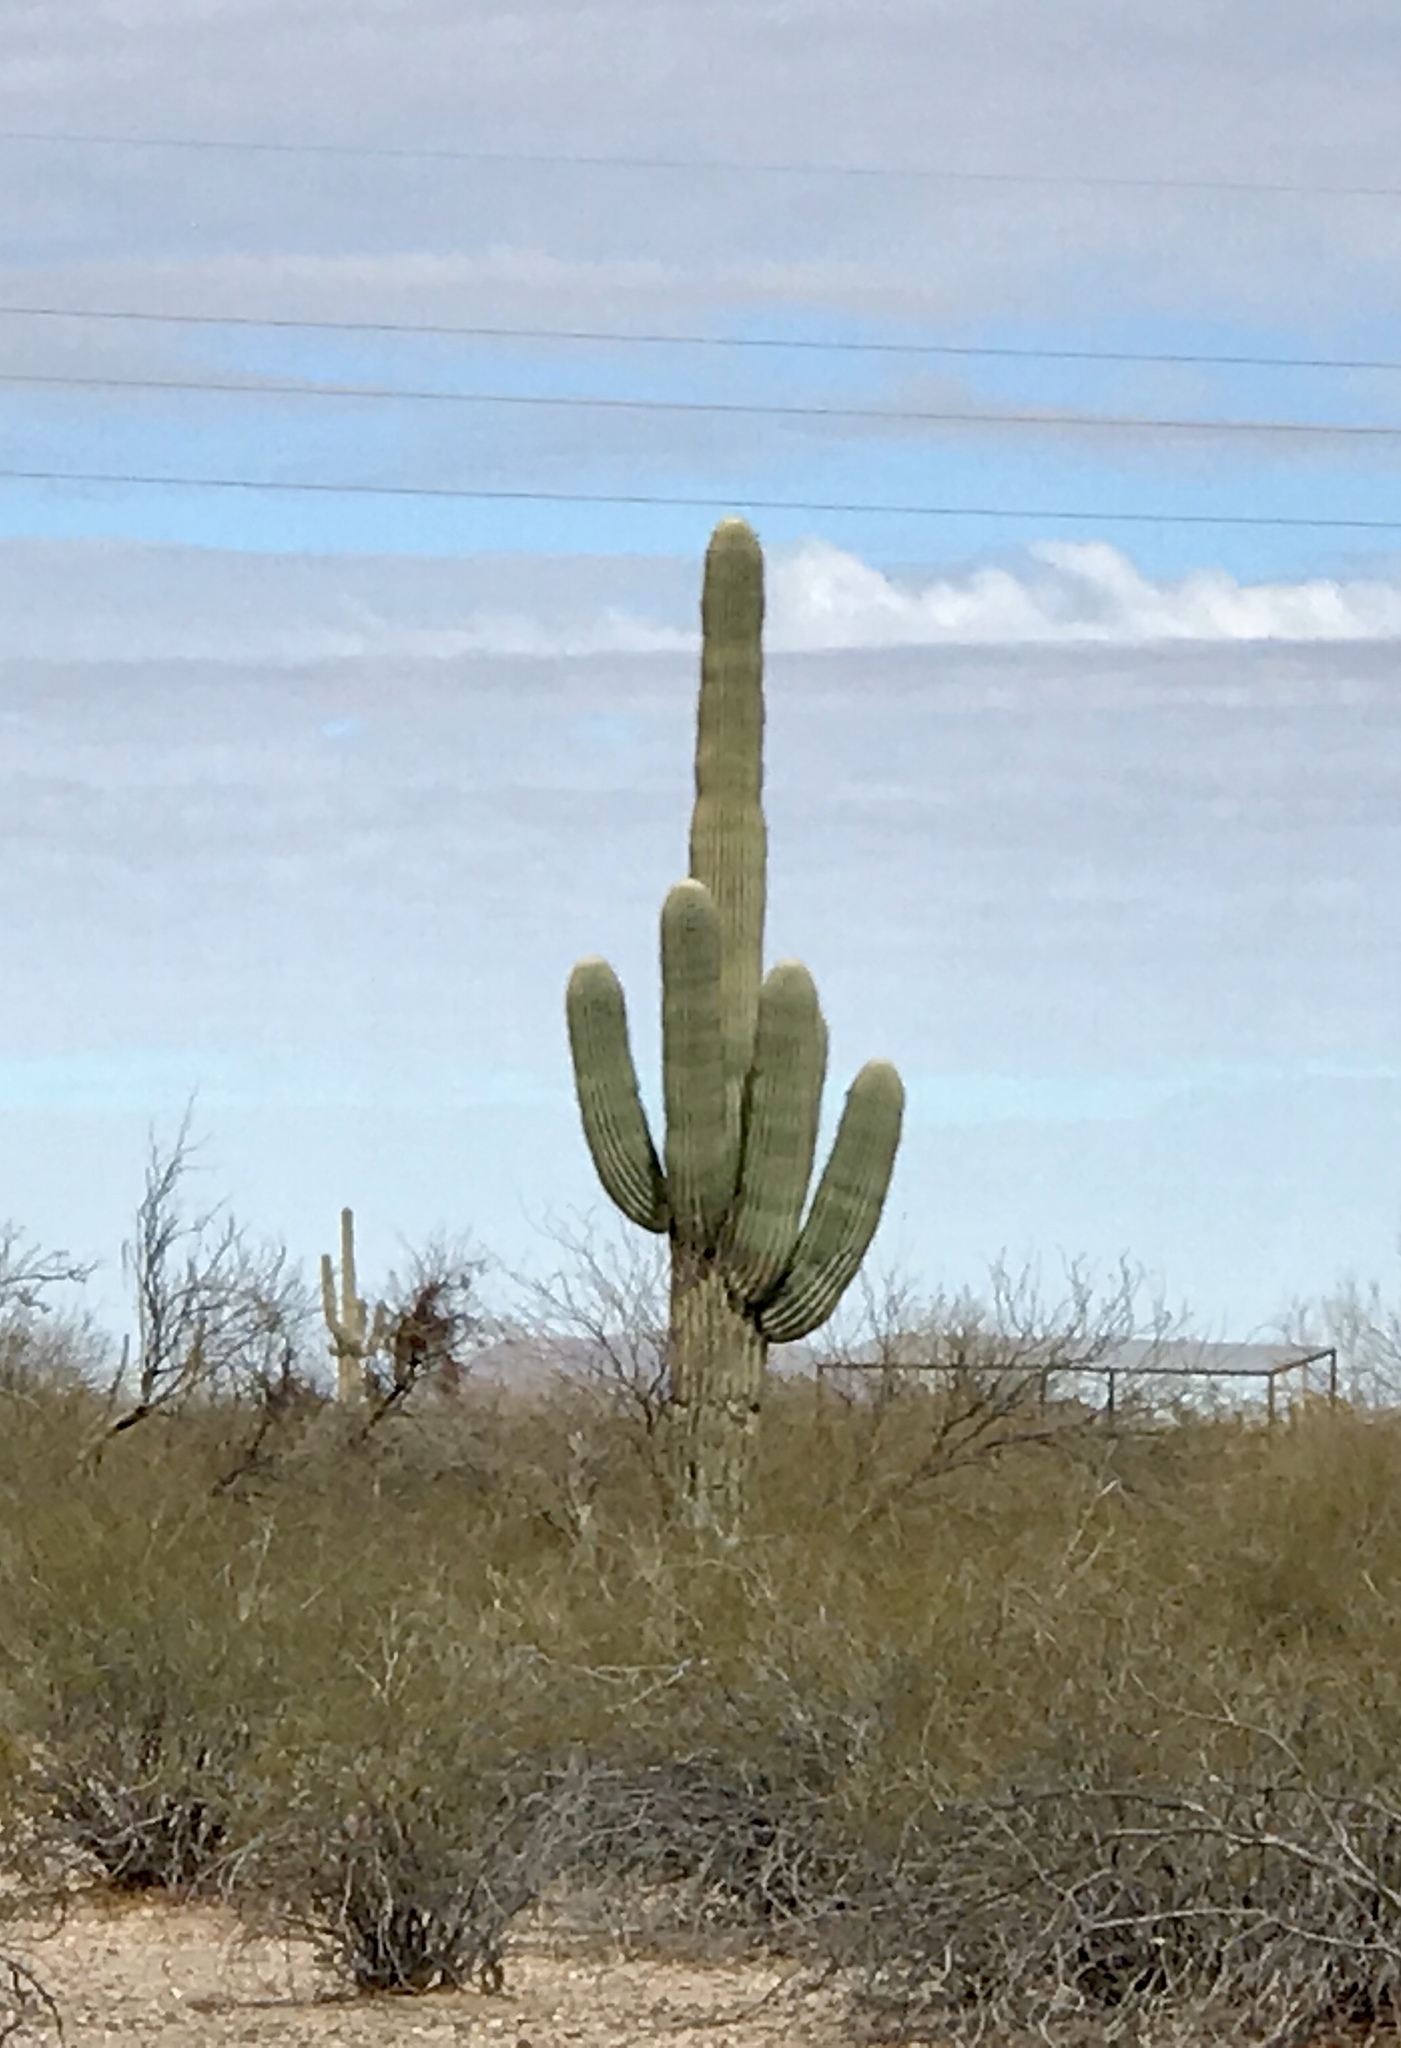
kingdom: Plantae
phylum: Tracheophyta
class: Magnoliopsida
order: Caryophyllales
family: Cactaceae
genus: Carnegiea
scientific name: Carnegiea gigantea
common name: Saguaro
